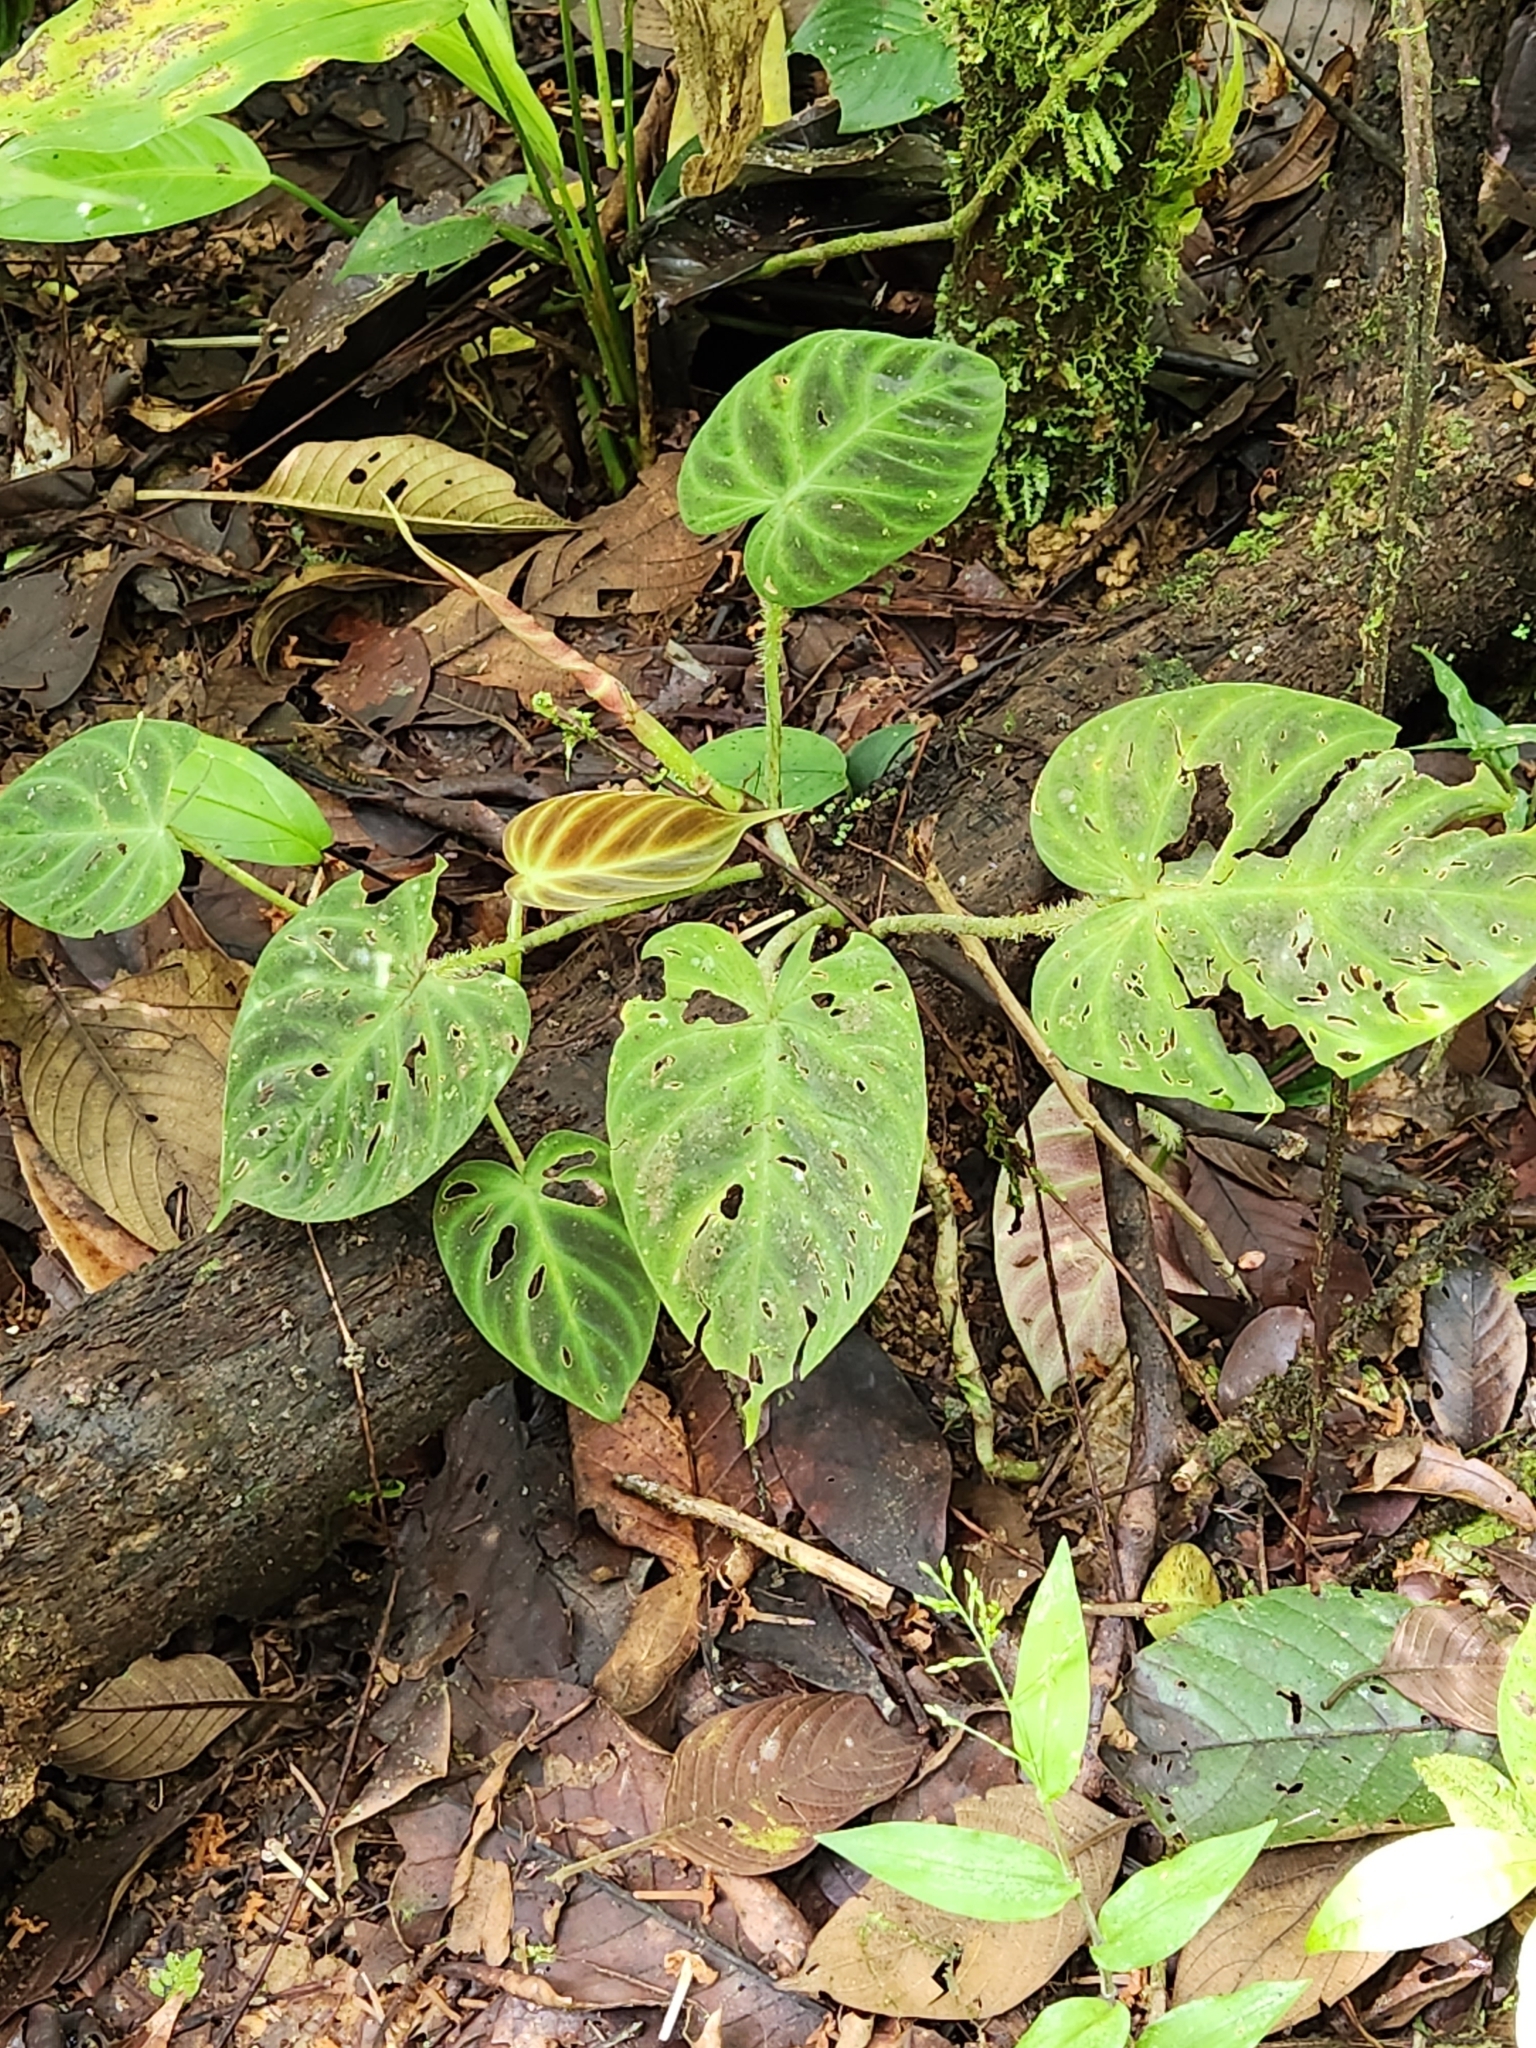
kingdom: Plantae
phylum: Tracheophyta
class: Liliopsida
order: Alismatales
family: Araceae
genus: Philodendron
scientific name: Philodendron verrucosum
